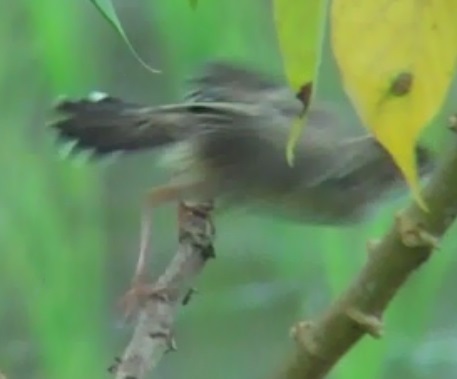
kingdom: Animalia
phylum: Chordata
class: Aves
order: Passeriformes
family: Cisticolidae
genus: Cisticola
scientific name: Cisticola juncidis
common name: Zitting cisticola
